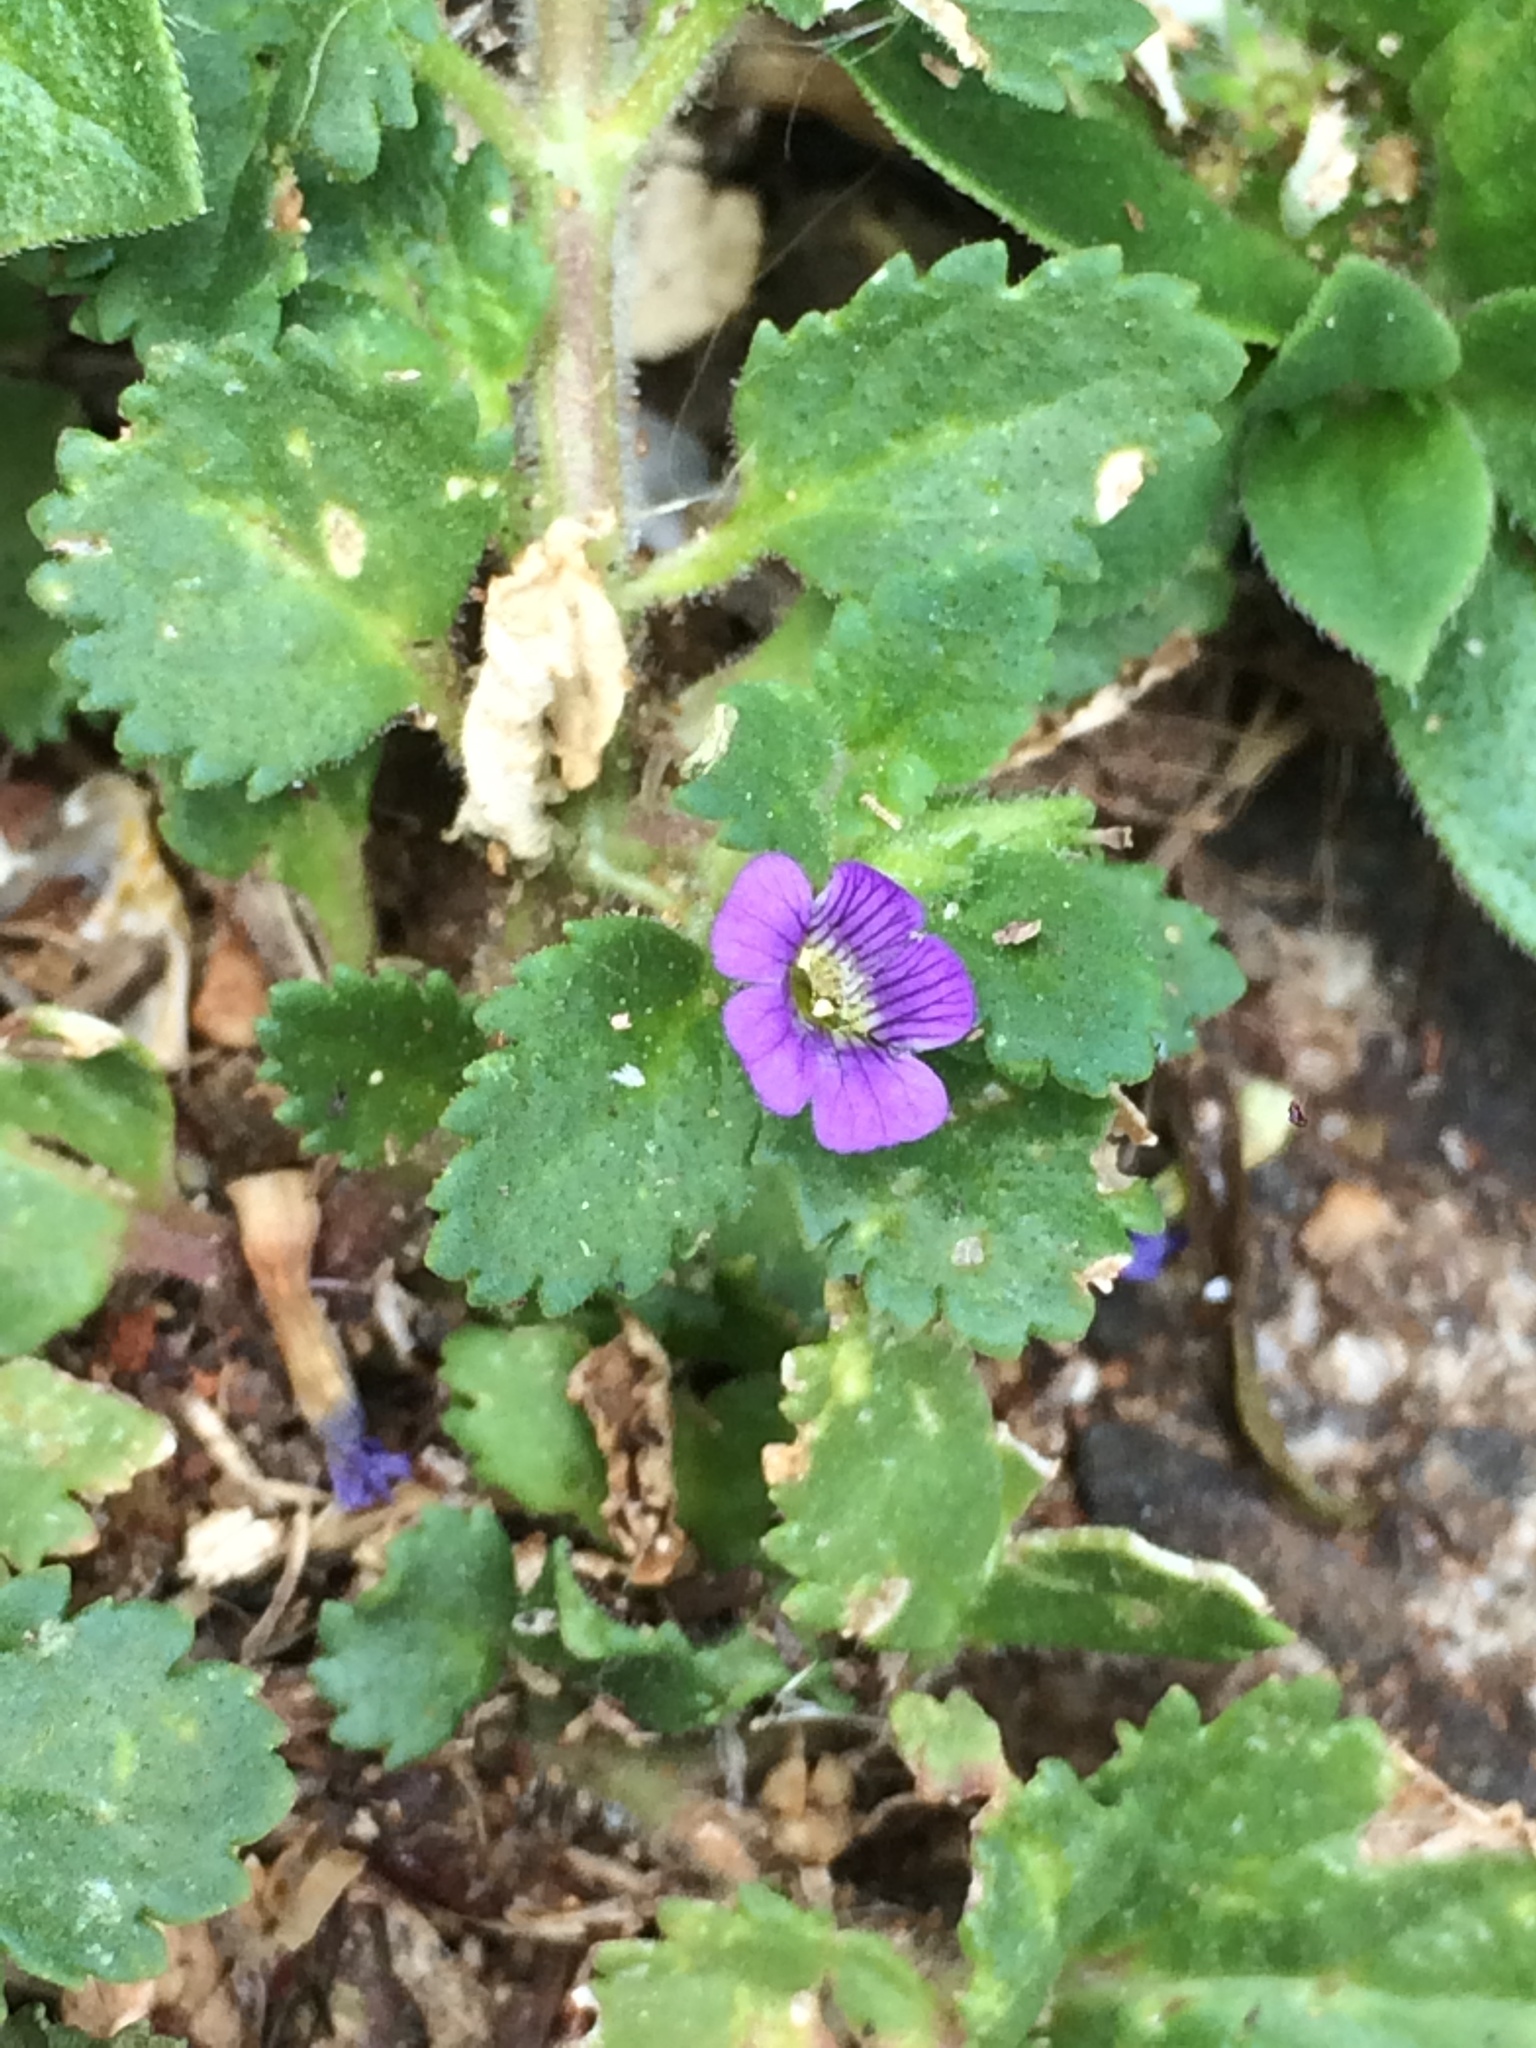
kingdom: Plantae
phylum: Tracheophyta
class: Magnoliopsida
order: Lamiales
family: Plantaginaceae
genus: Stemodia
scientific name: Stemodia verticillata
